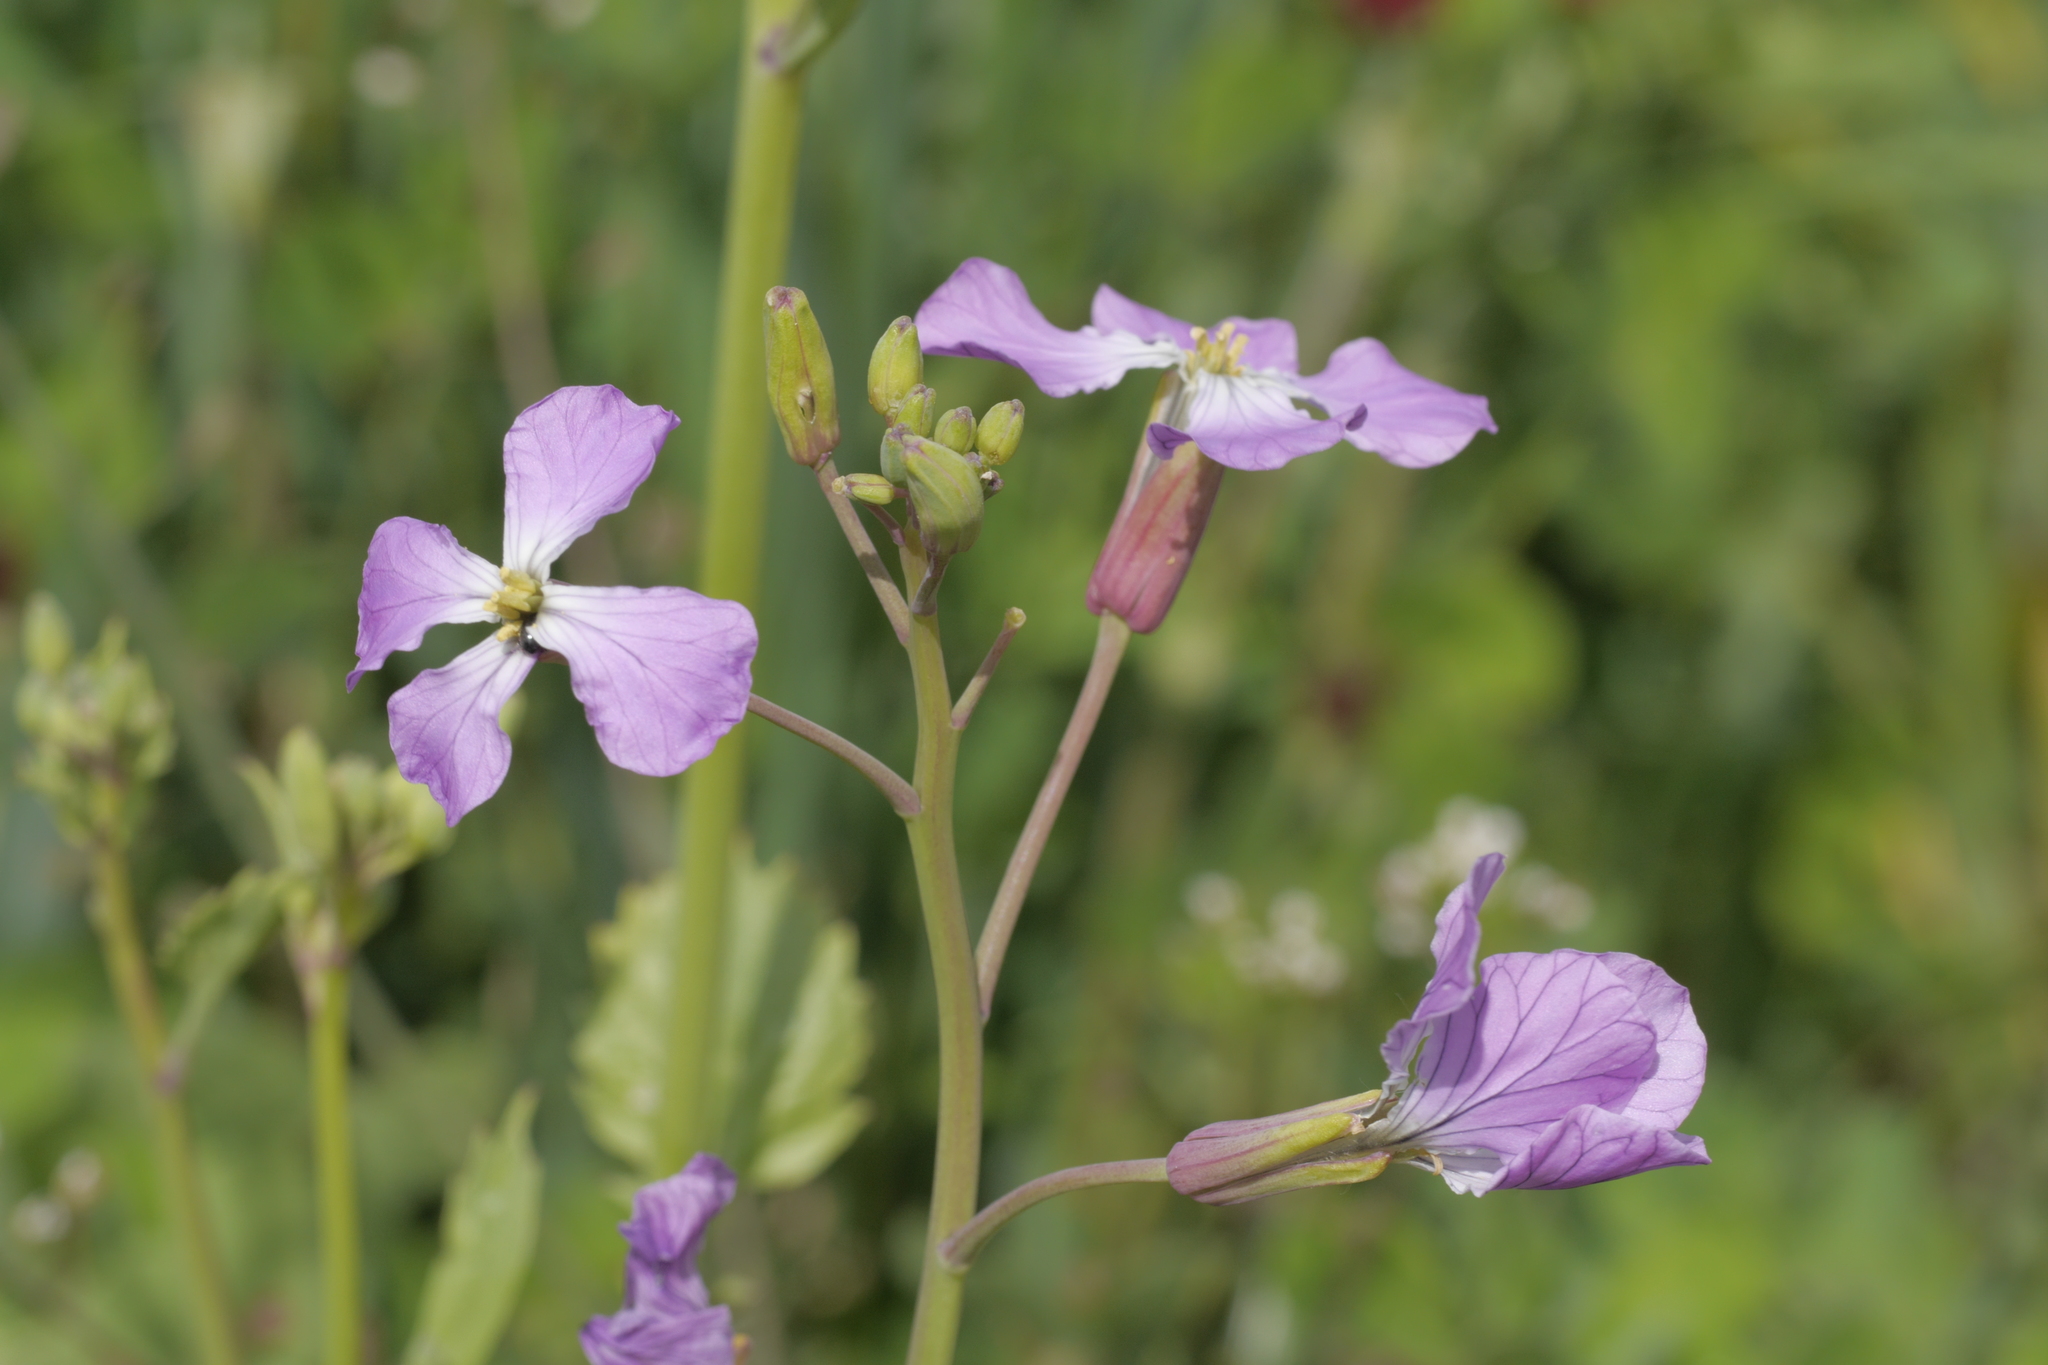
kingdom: Plantae
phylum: Tracheophyta
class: Magnoliopsida
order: Brassicales
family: Brassicaceae
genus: Raphanus
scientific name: Raphanus sativus
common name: Cultivated radish
